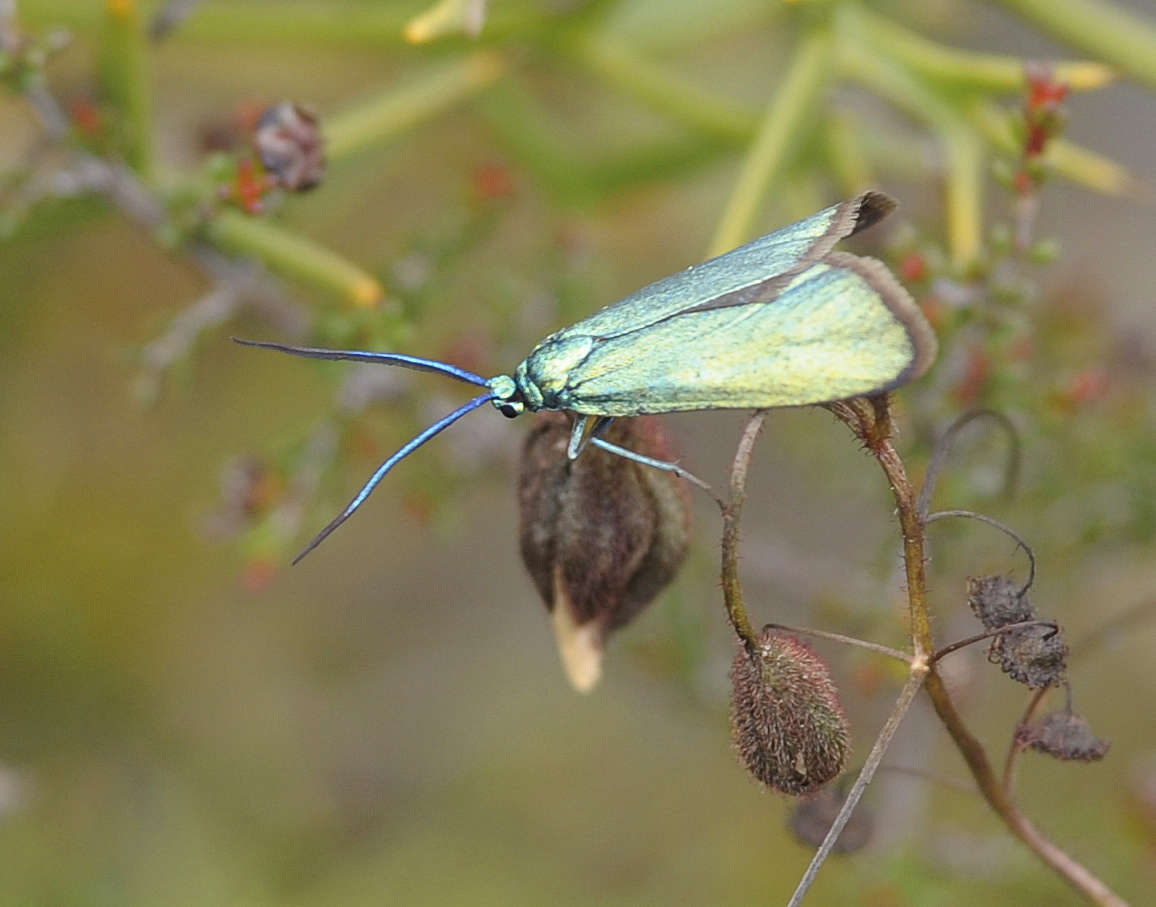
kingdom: Animalia
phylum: Arthropoda
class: Insecta
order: Lepidoptera
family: Zygaenidae
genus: Pollanisus
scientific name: Pollanisus viridipulverulenta
